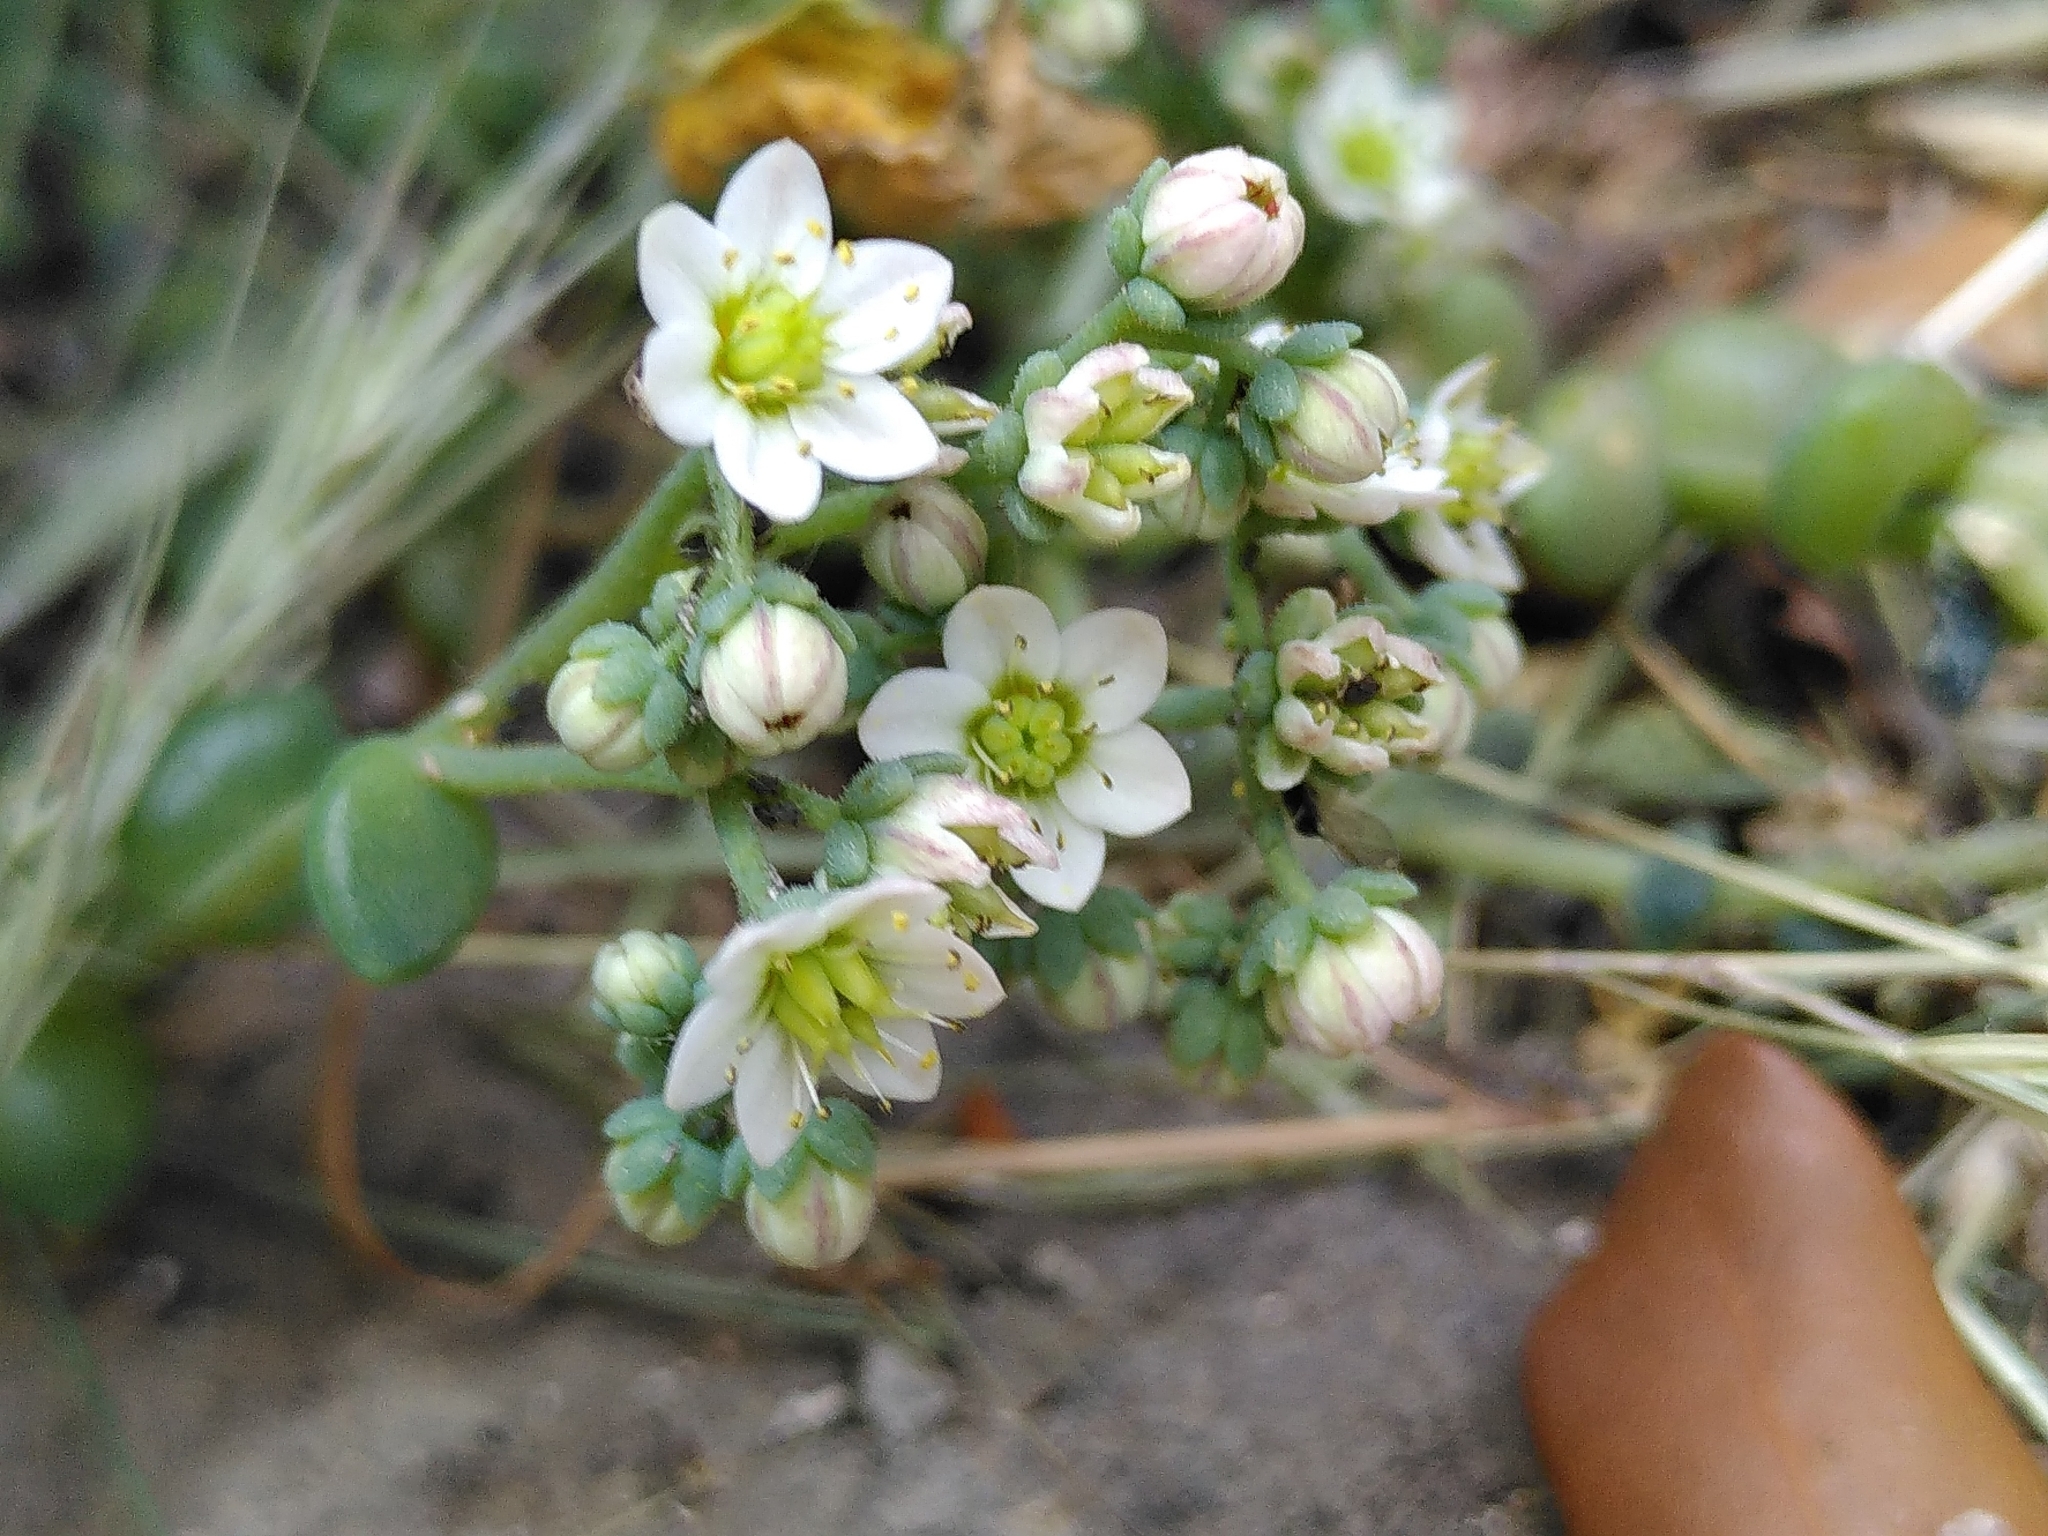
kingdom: Plantae
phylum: Tracheophyta
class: Magnoliopsida
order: Saxifragales
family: Crassulaceae
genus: Sedum
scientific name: Sedum dasyphyllum
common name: Thick-leaf stonecrop
